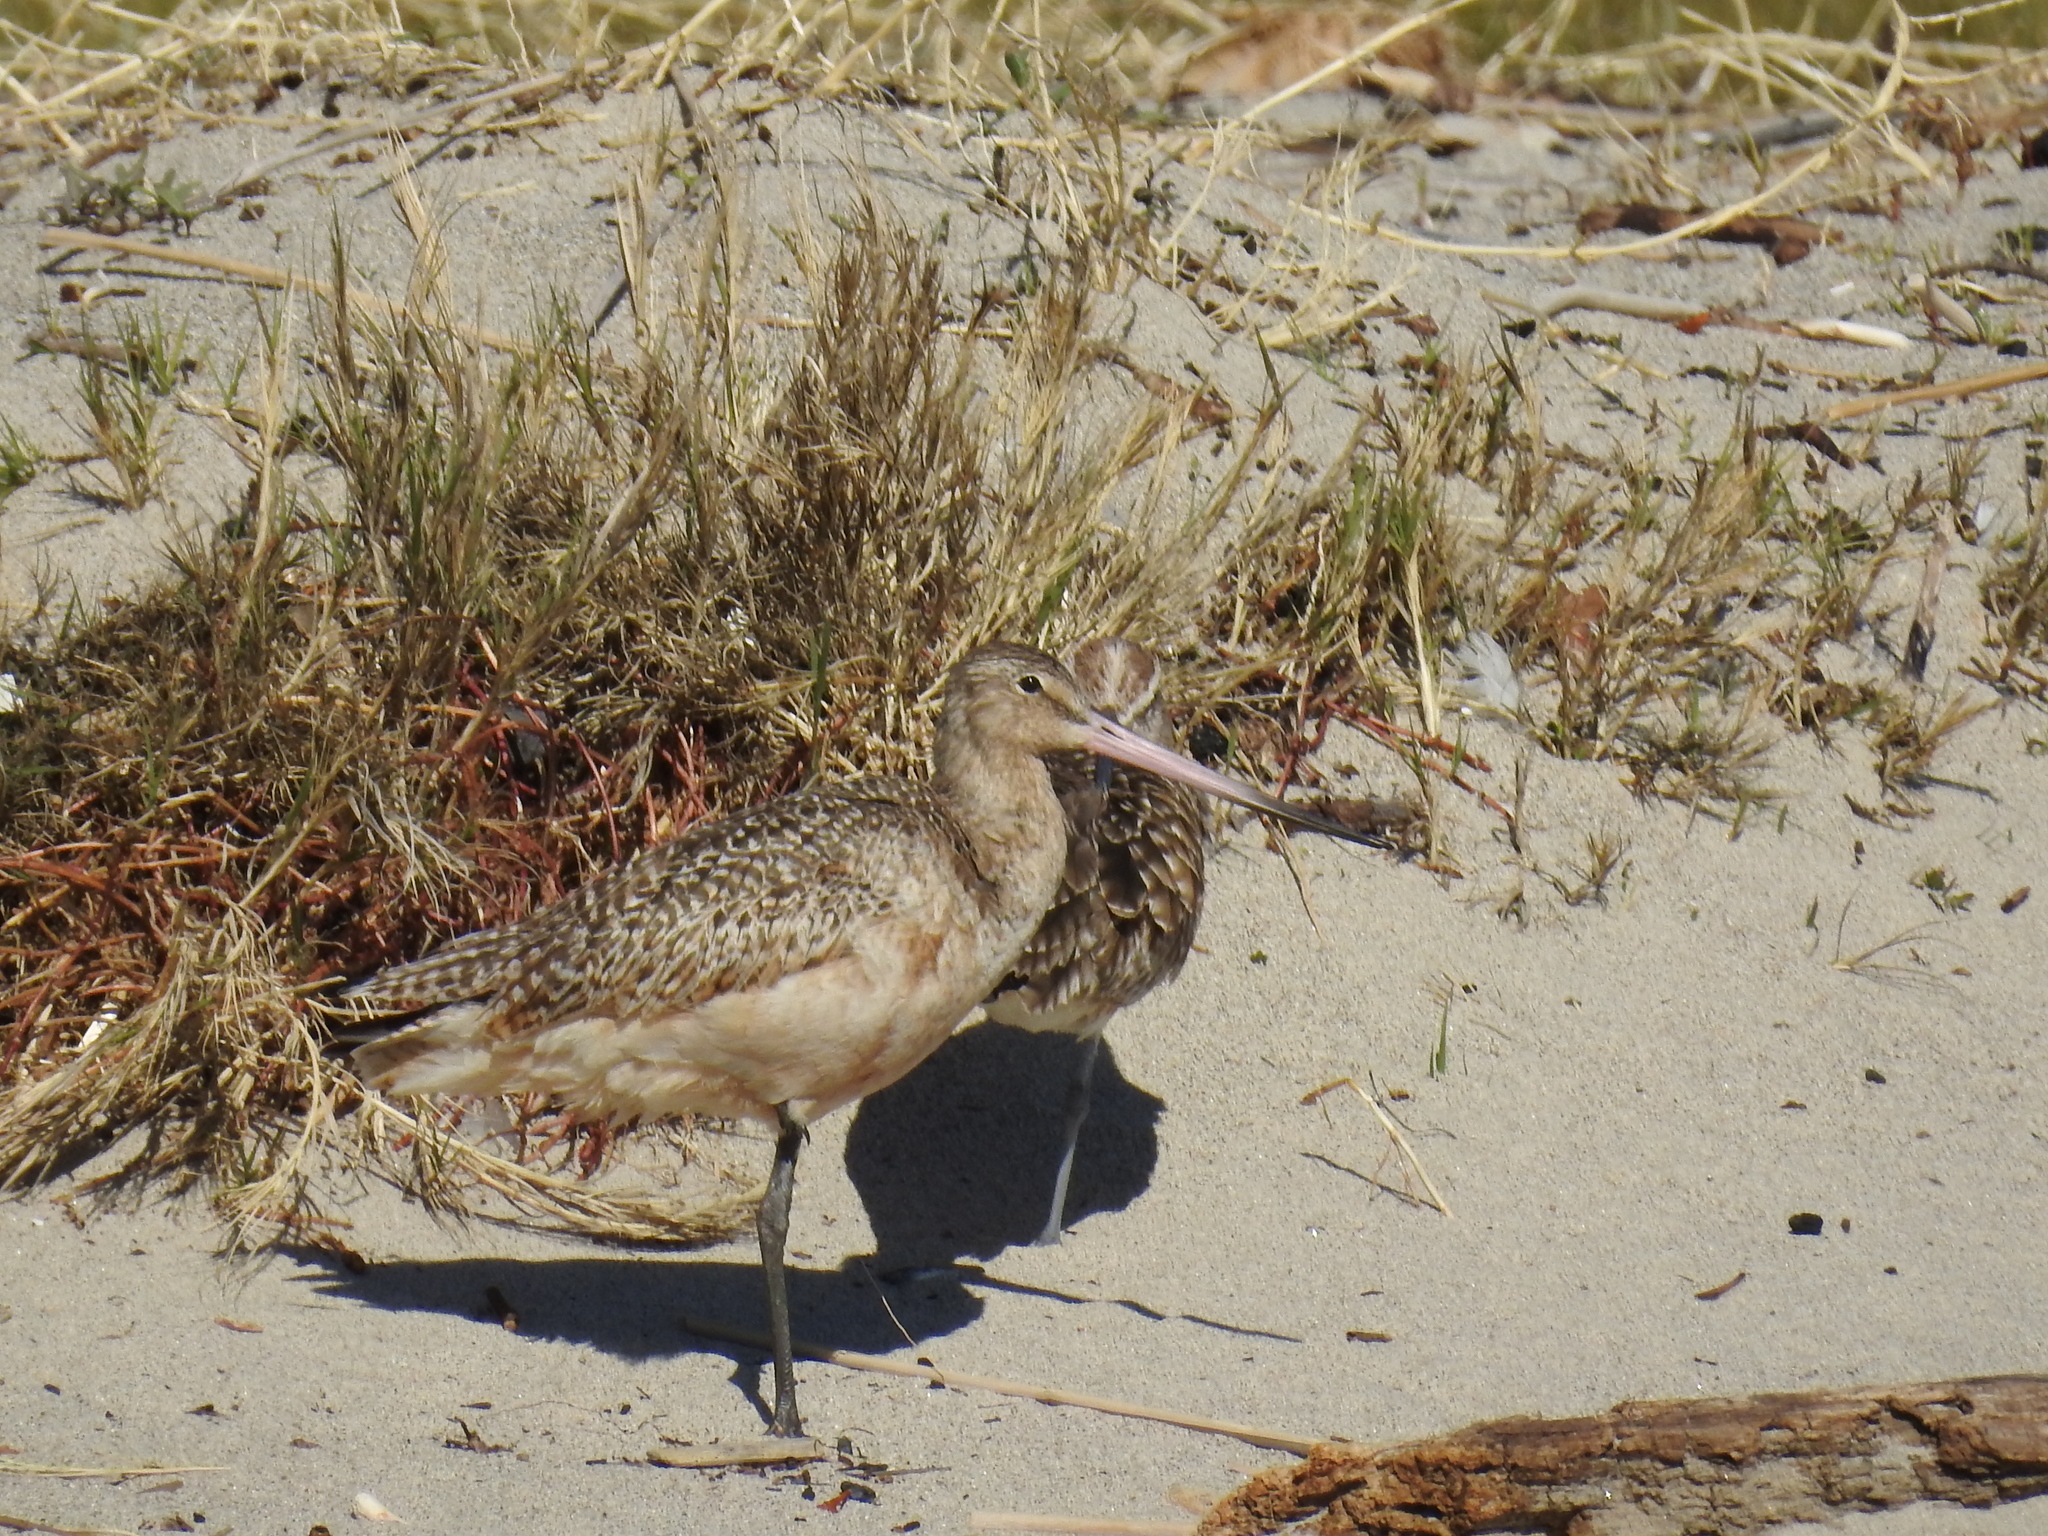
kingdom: Animalia
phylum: Chordata
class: Aves
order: Charadriiformes
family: Scolopacidae
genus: Limosa
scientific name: Limosa fedoa
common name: Marbled godwit
